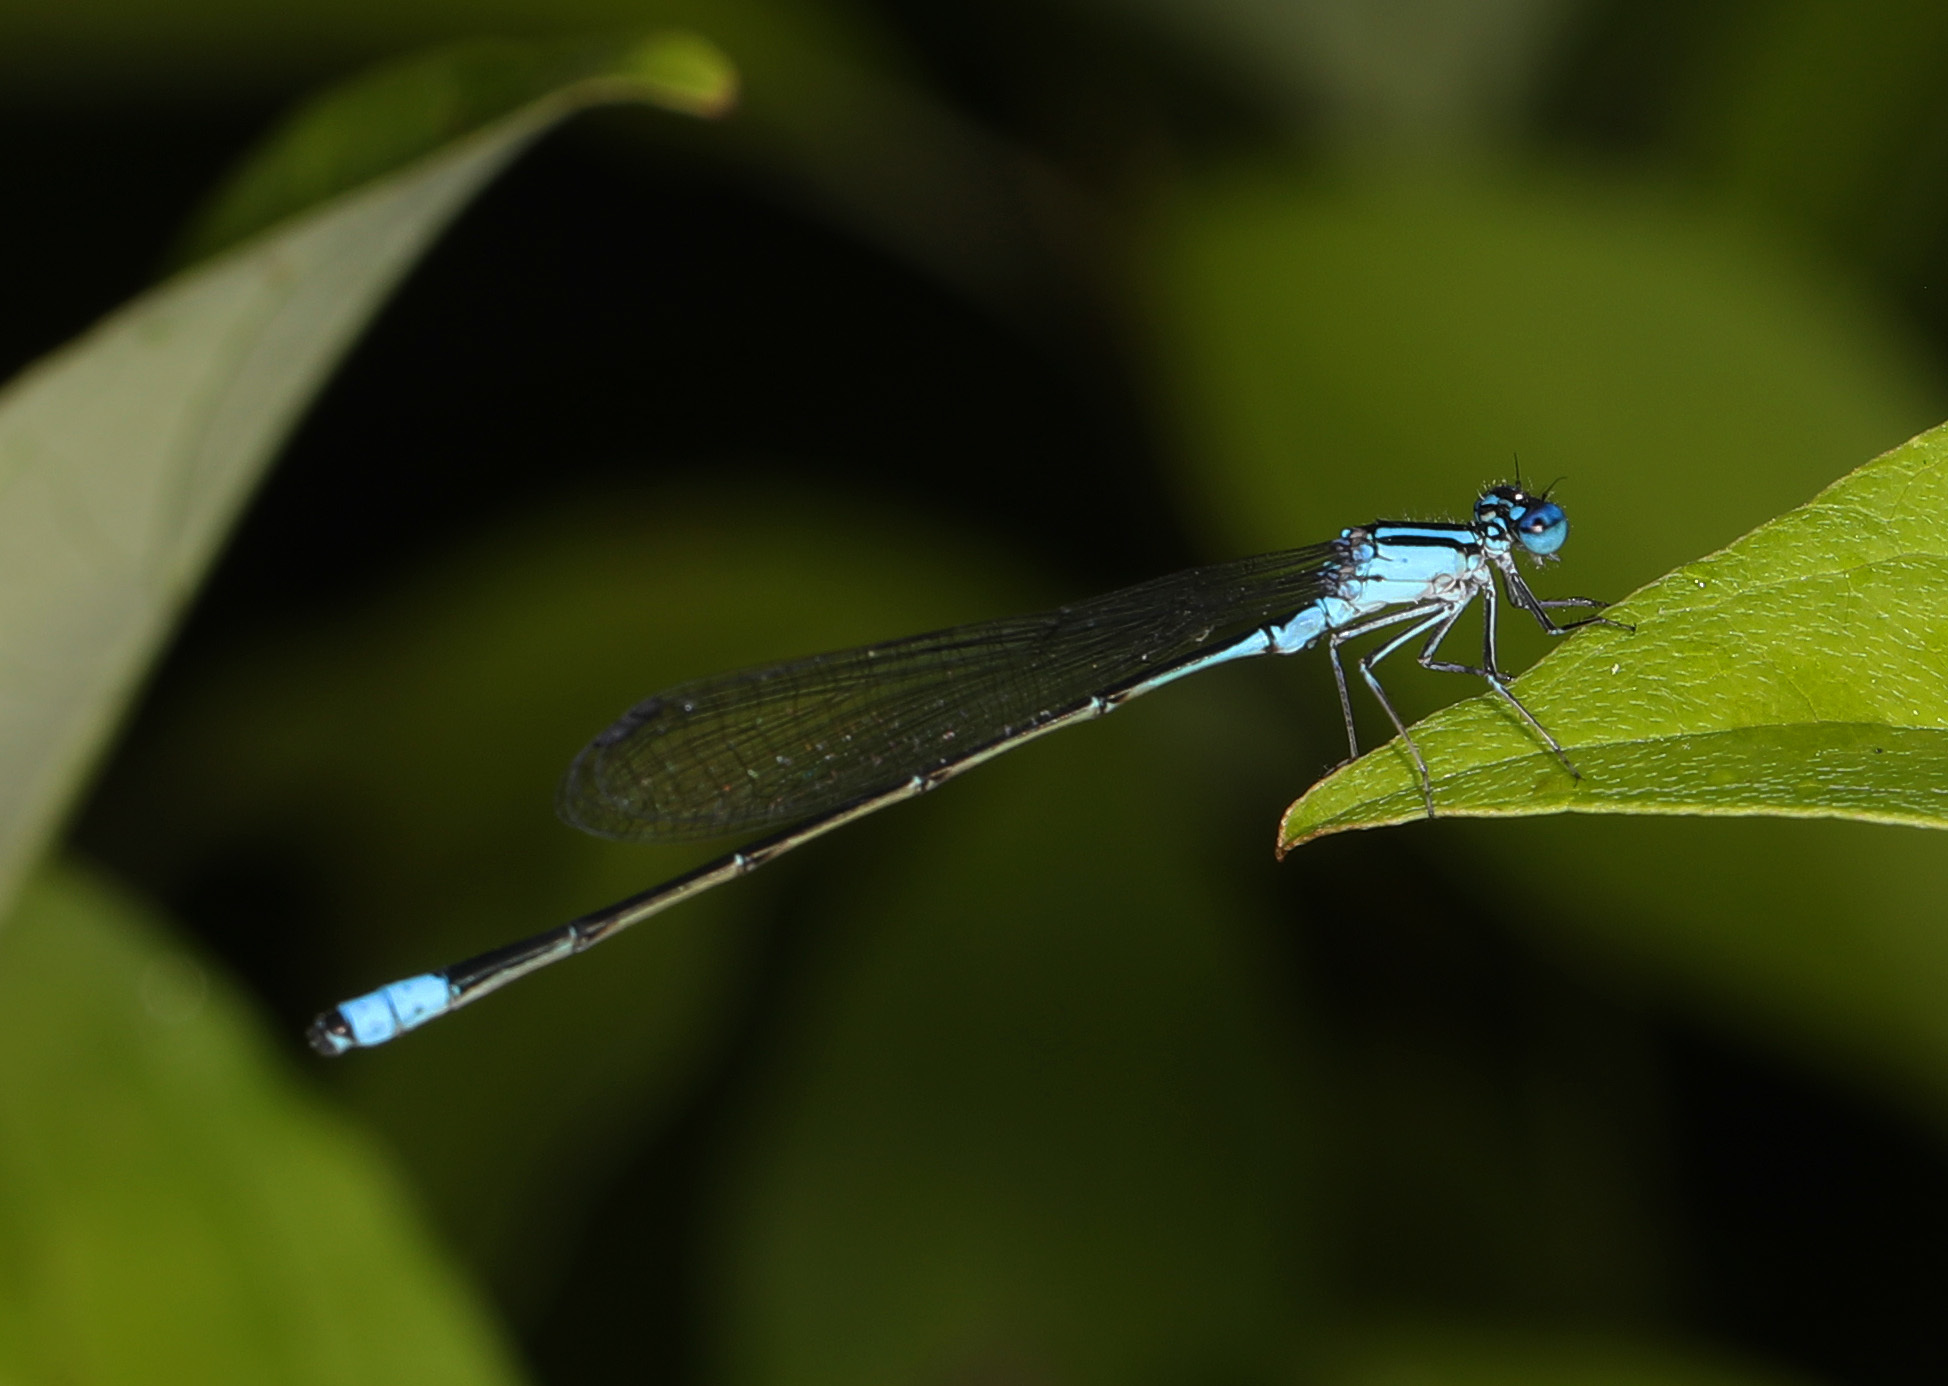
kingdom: Animalia
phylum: Arthropoda
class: Insecta
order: Odonata
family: Coenagrionidae
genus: Enallagma
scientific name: Enallagma divagans
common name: Turquoise bluet
